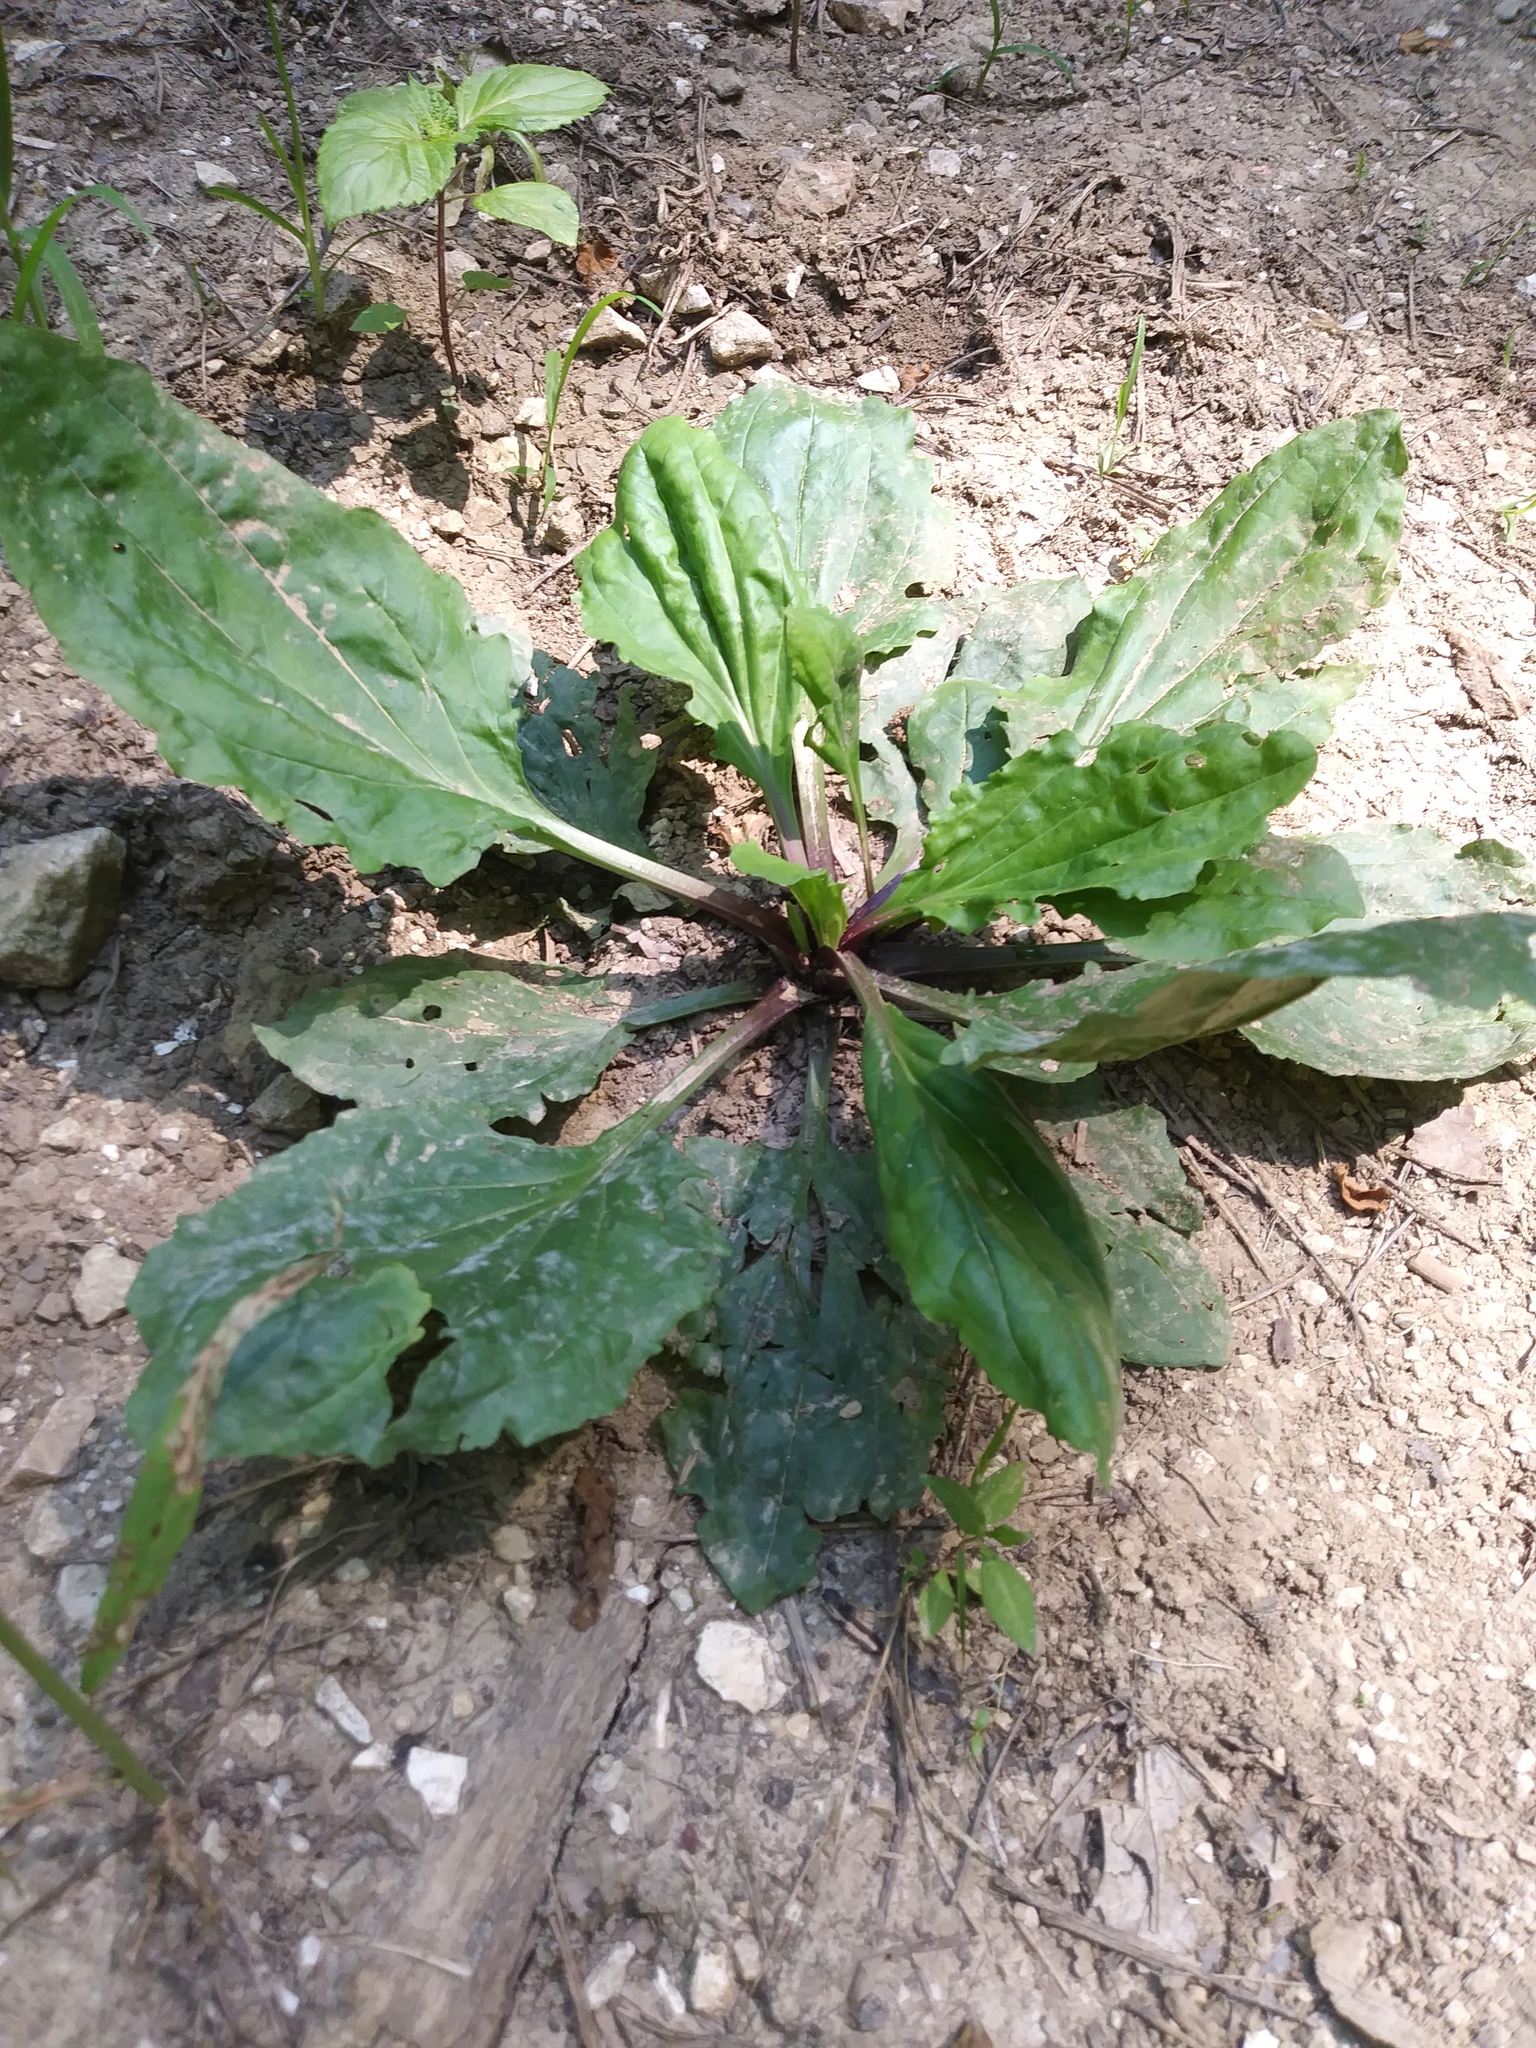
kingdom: Plantae
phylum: Tracheophyta
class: Magnoliopsida
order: Lamiales
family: Plantaginaceae
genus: Plantago
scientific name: Plantago rugelii
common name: American plantain
